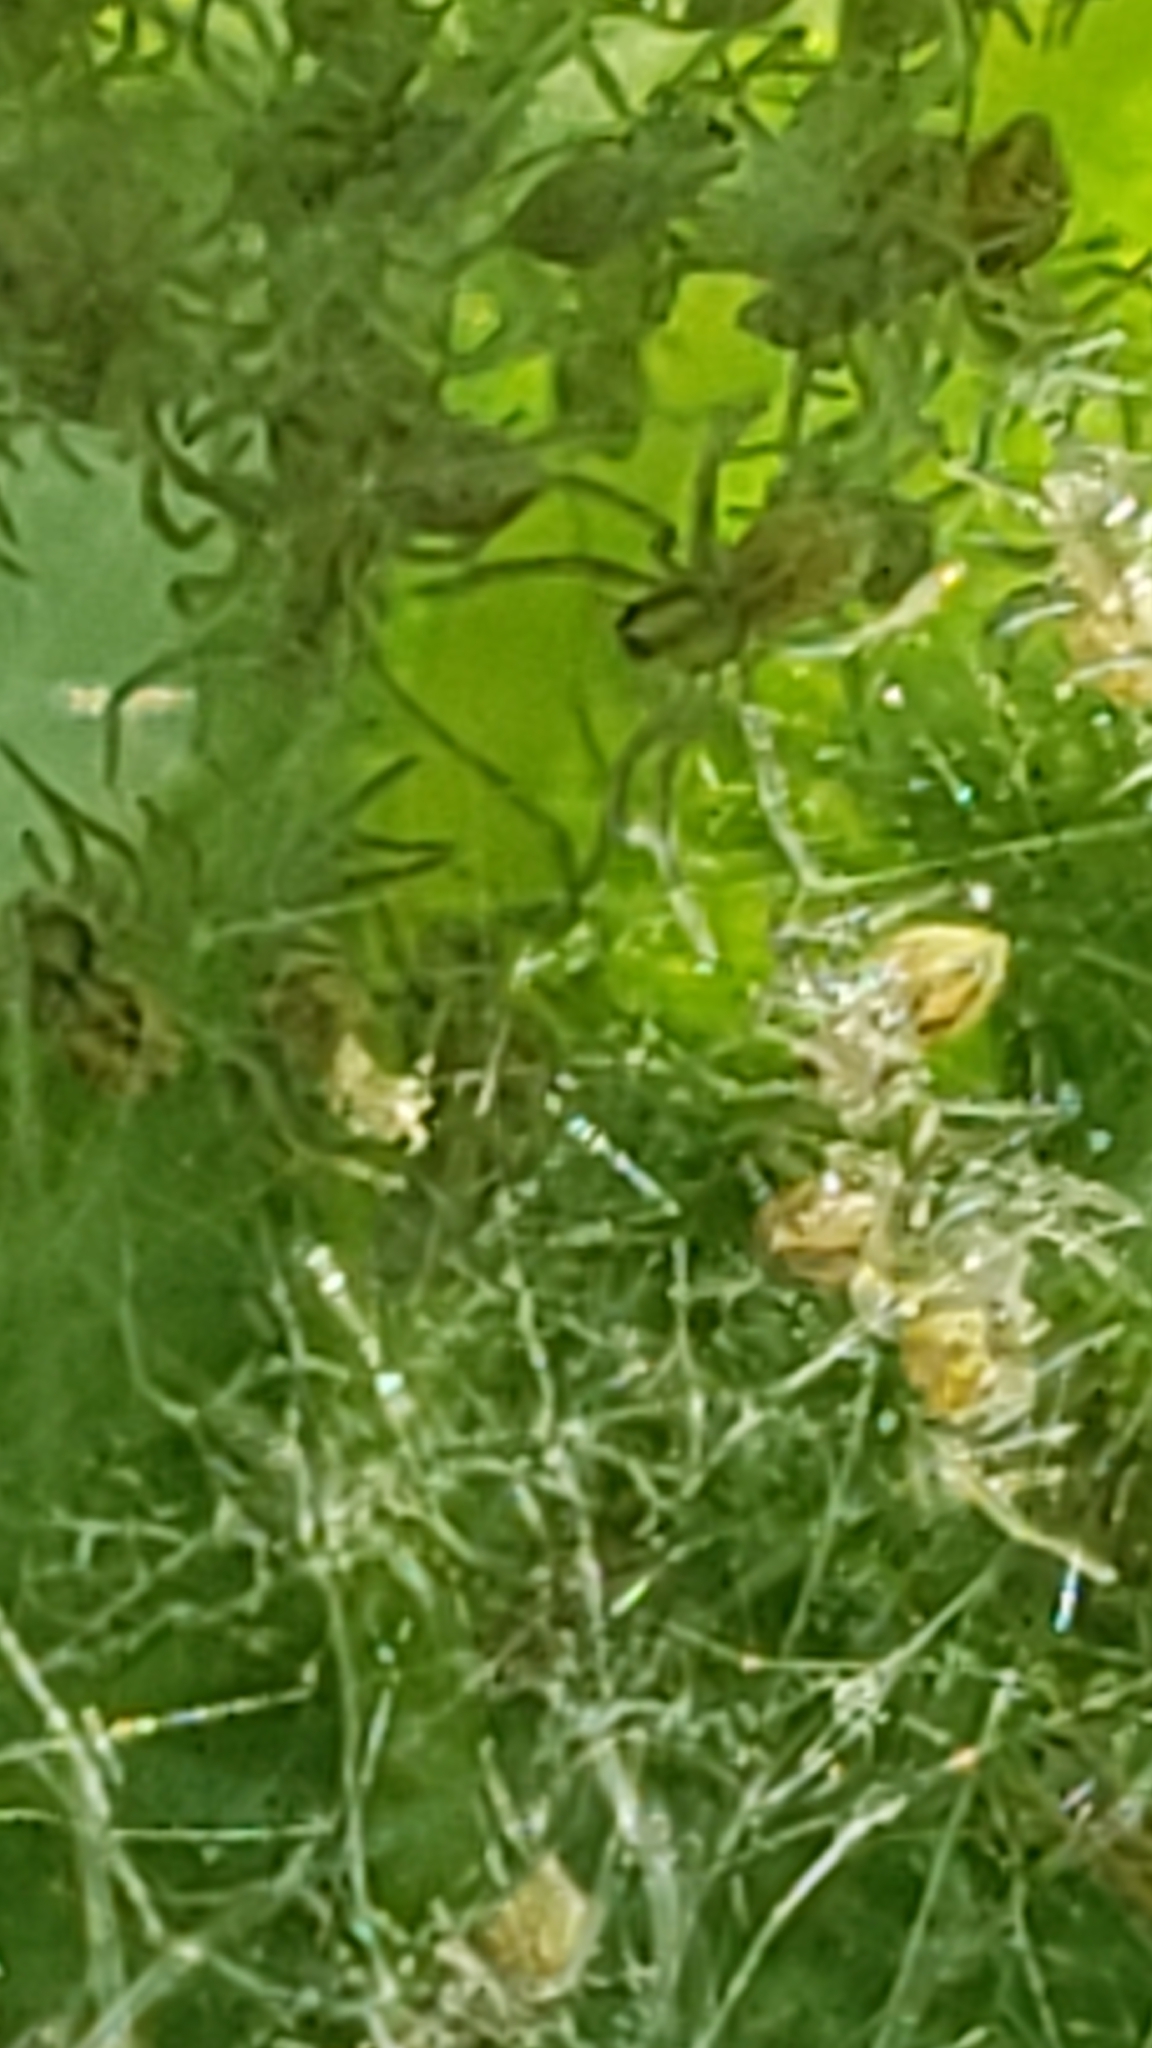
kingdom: Animalia
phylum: Arthropoda
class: Arachnida
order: Araneae
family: Pisauridae
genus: Pisaurina
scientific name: Pisaurina mira
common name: American nursery web spider
